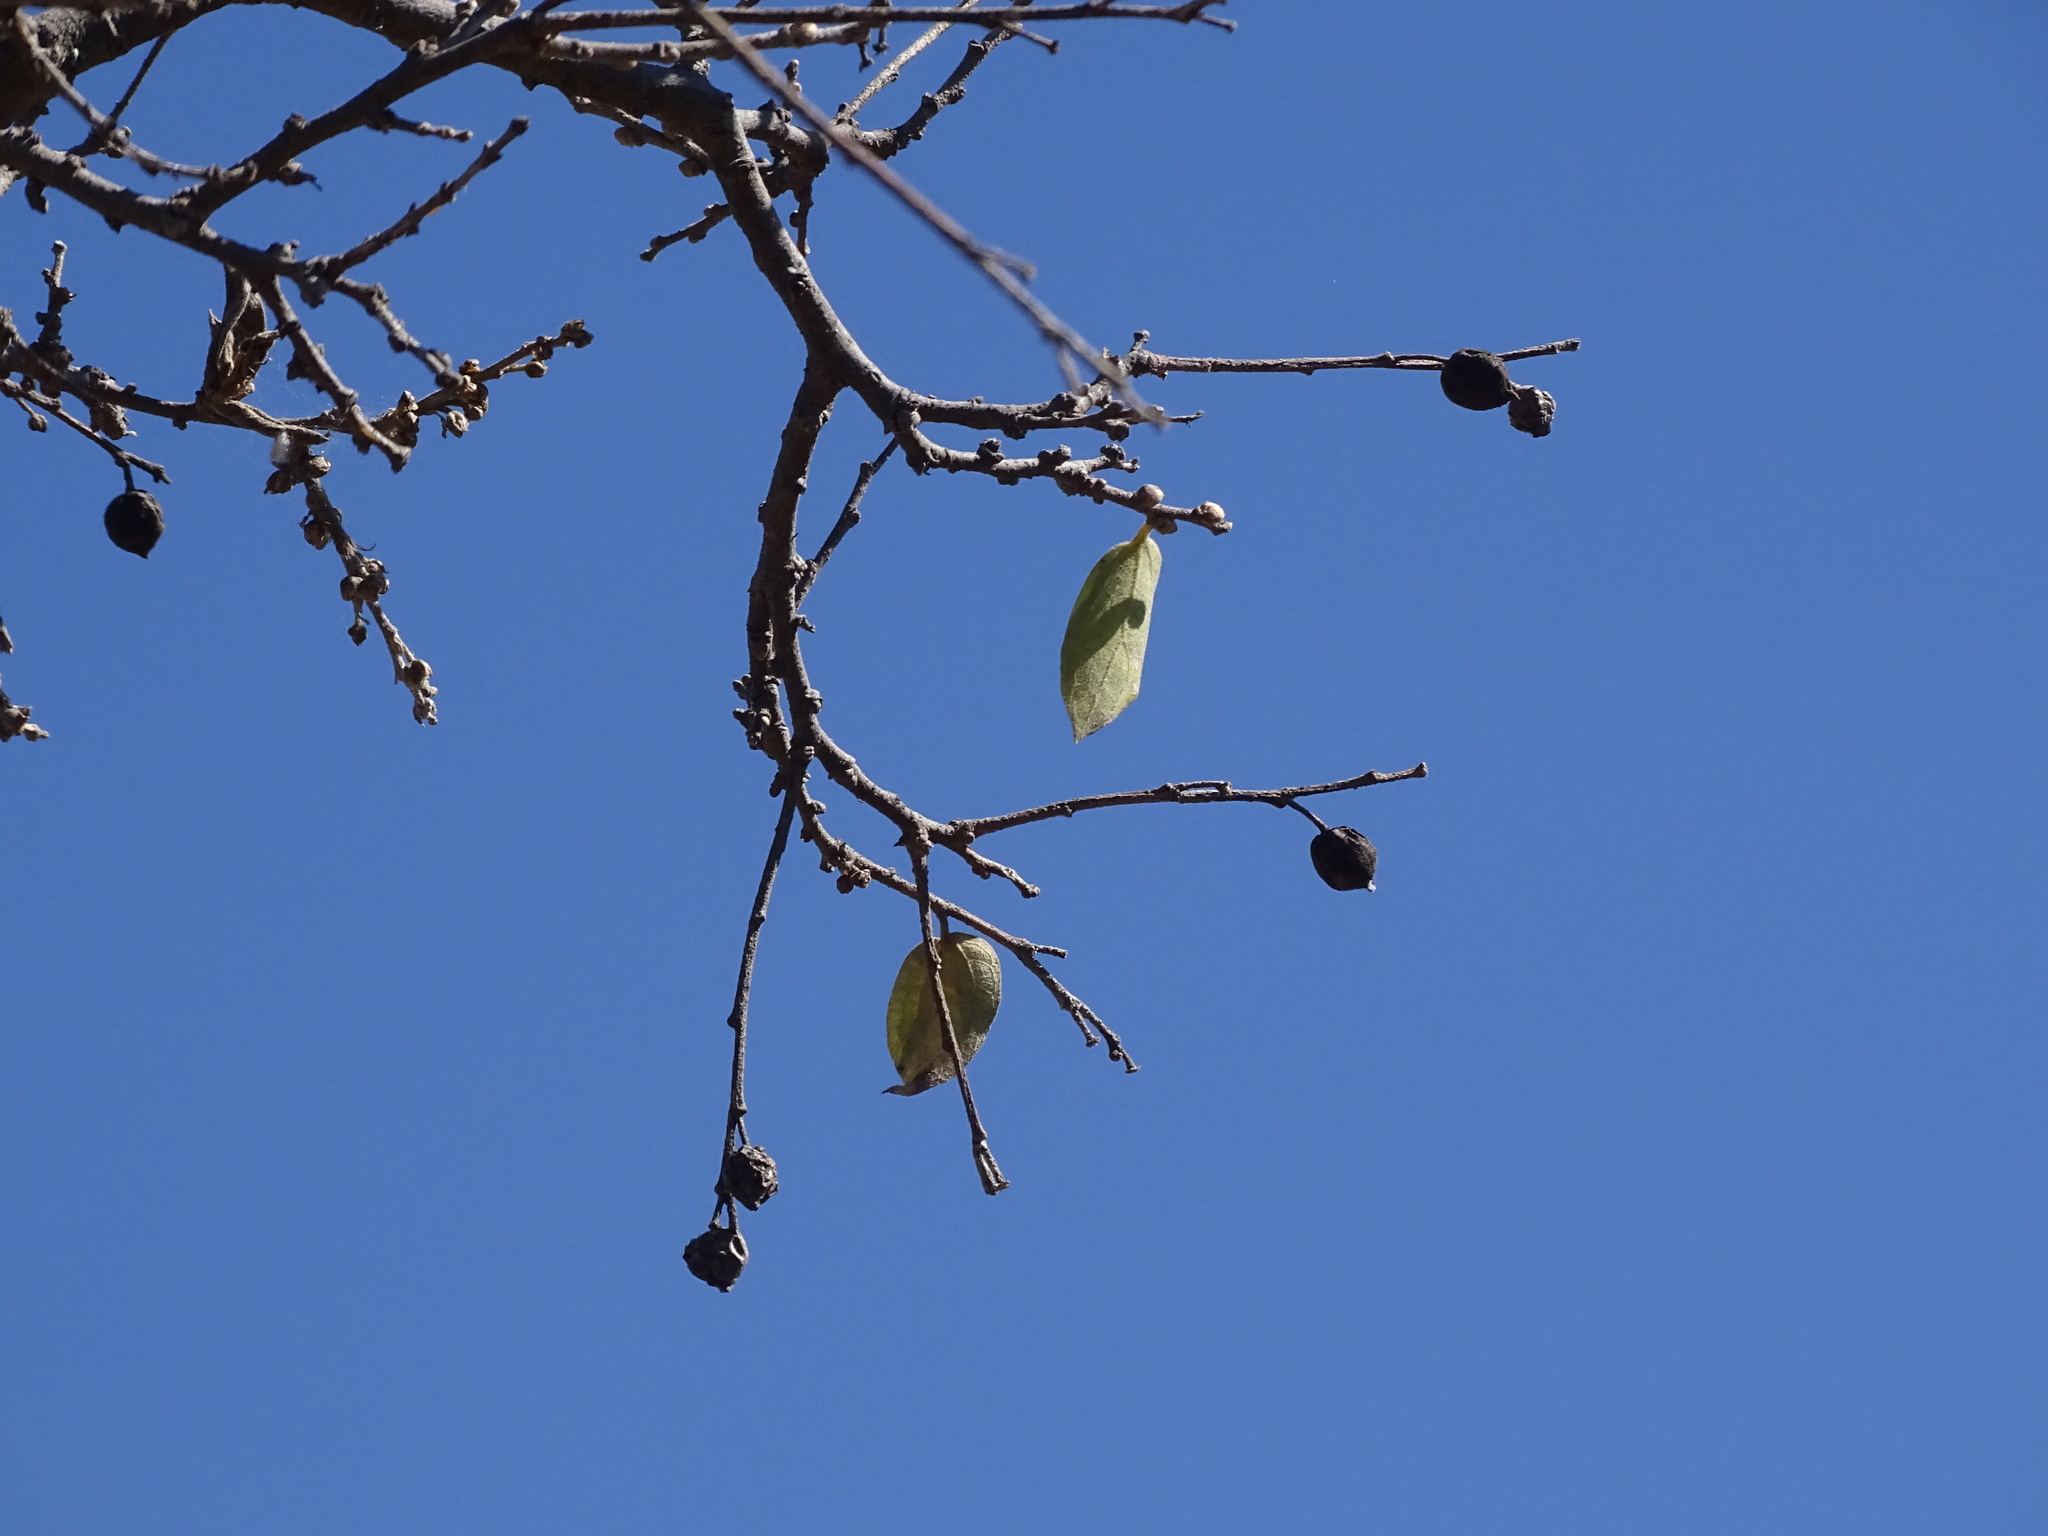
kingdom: Plantae
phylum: Tracheophyta
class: Magnoliopsida
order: Rosales
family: Cannabaceae
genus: Celtis
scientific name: Celtis laevigata
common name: Sugarberry
